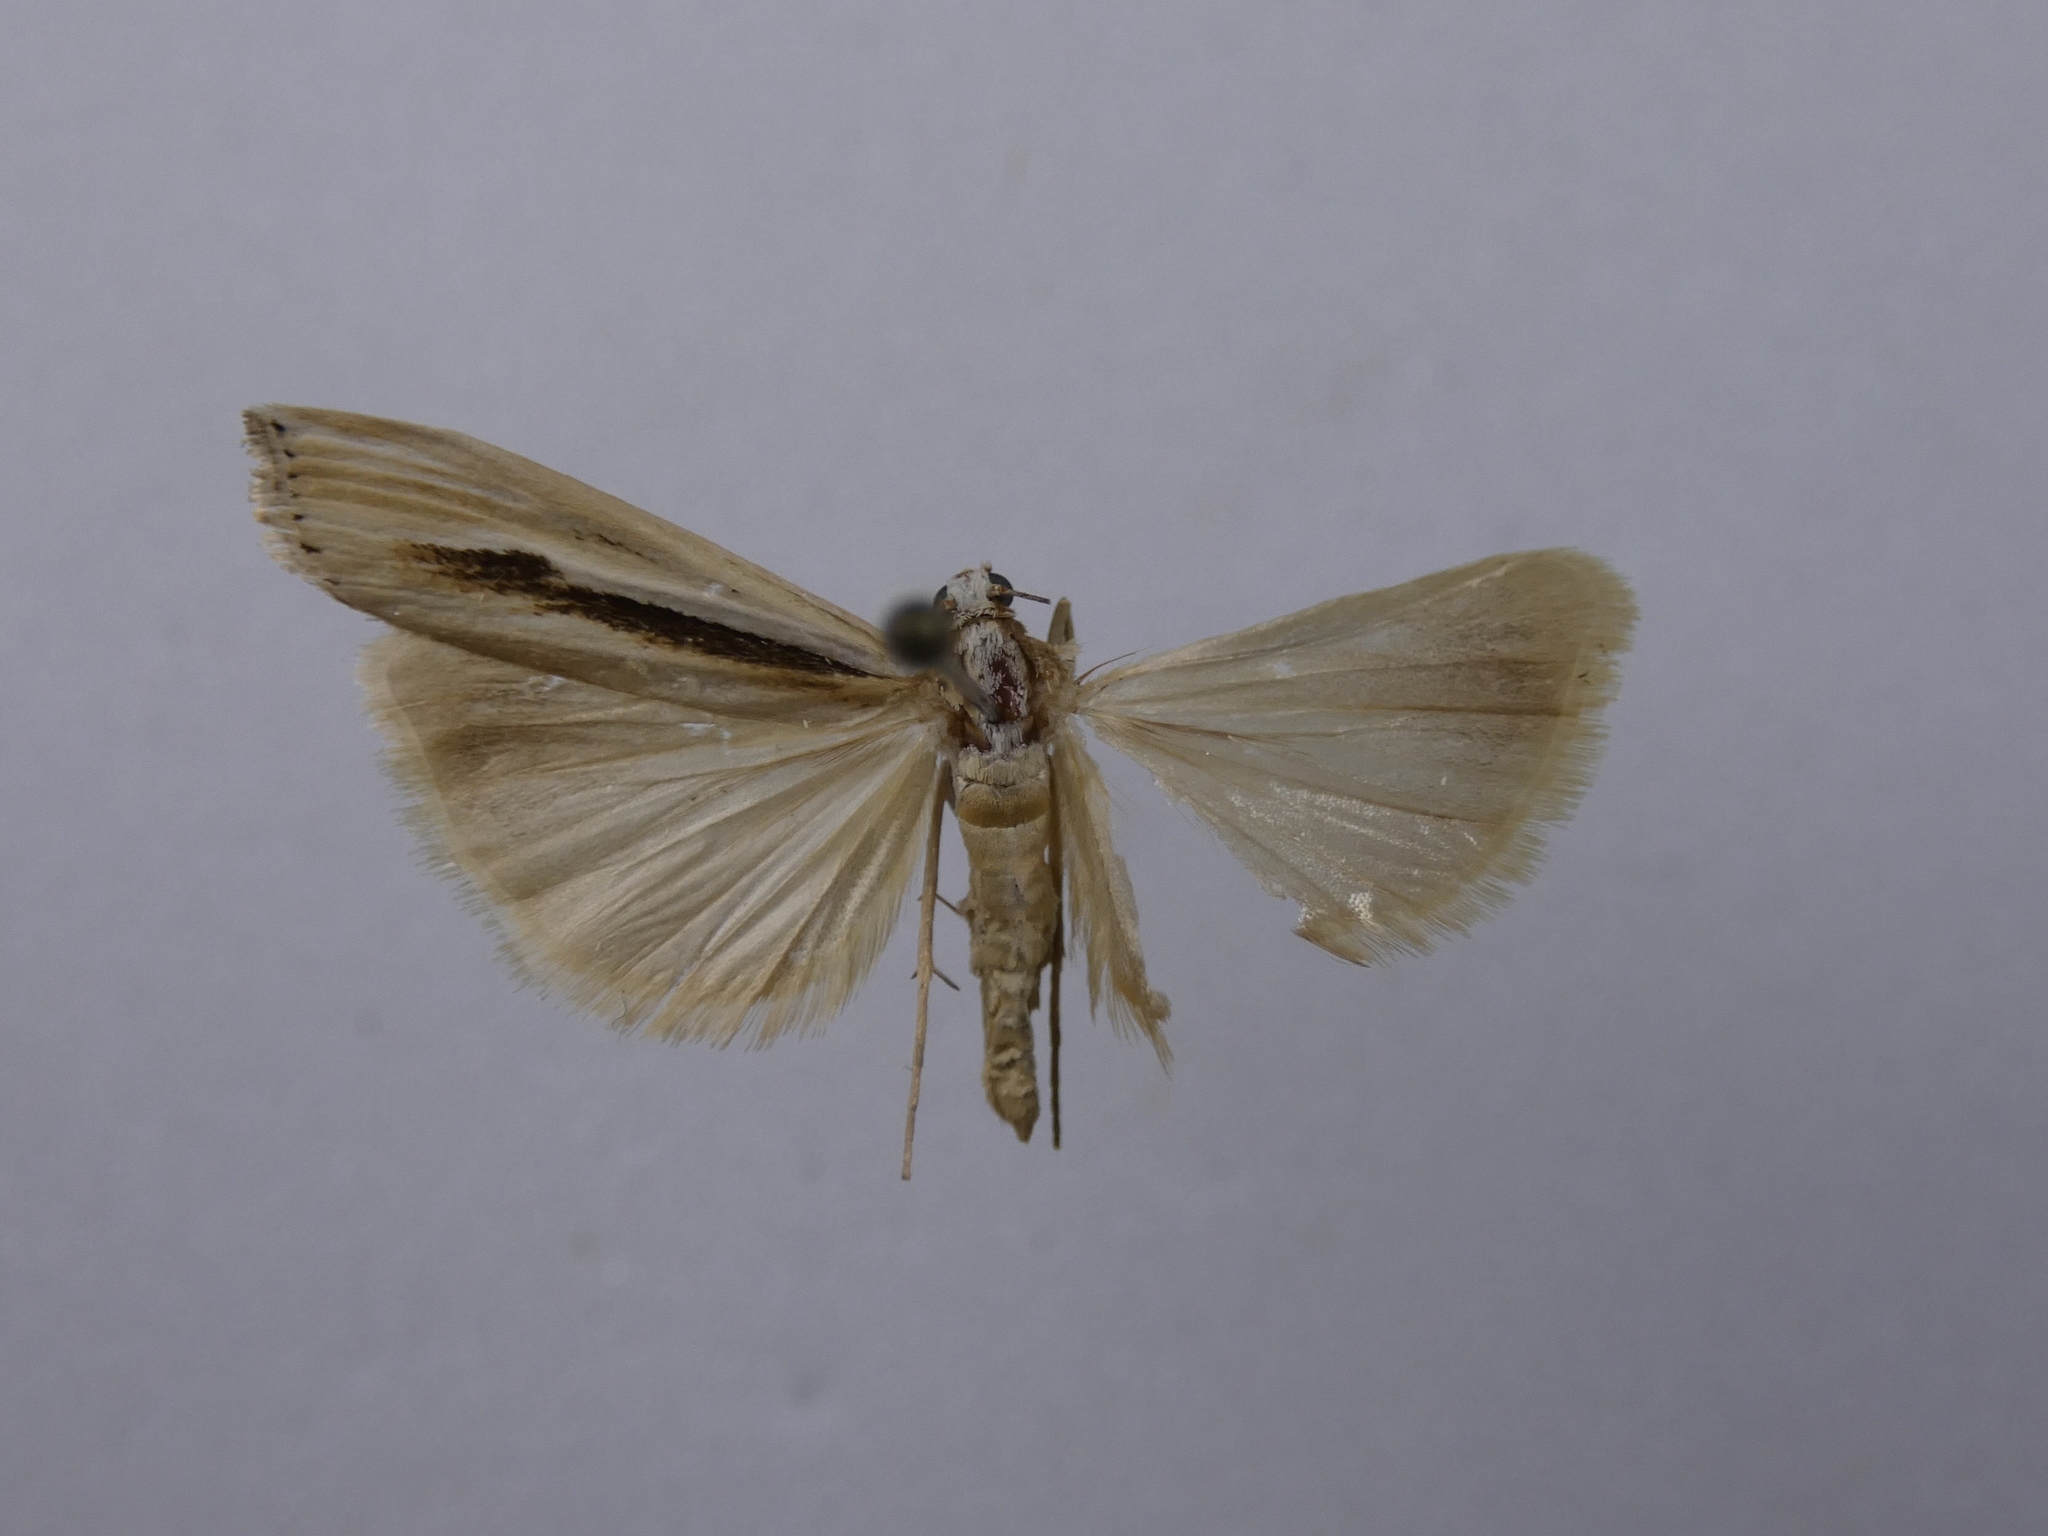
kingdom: Animalia
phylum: Arthropoda
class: Insecta
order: Lepidoptera
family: Crambidae
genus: Orocrambus
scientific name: Orocrambus ramosellus
